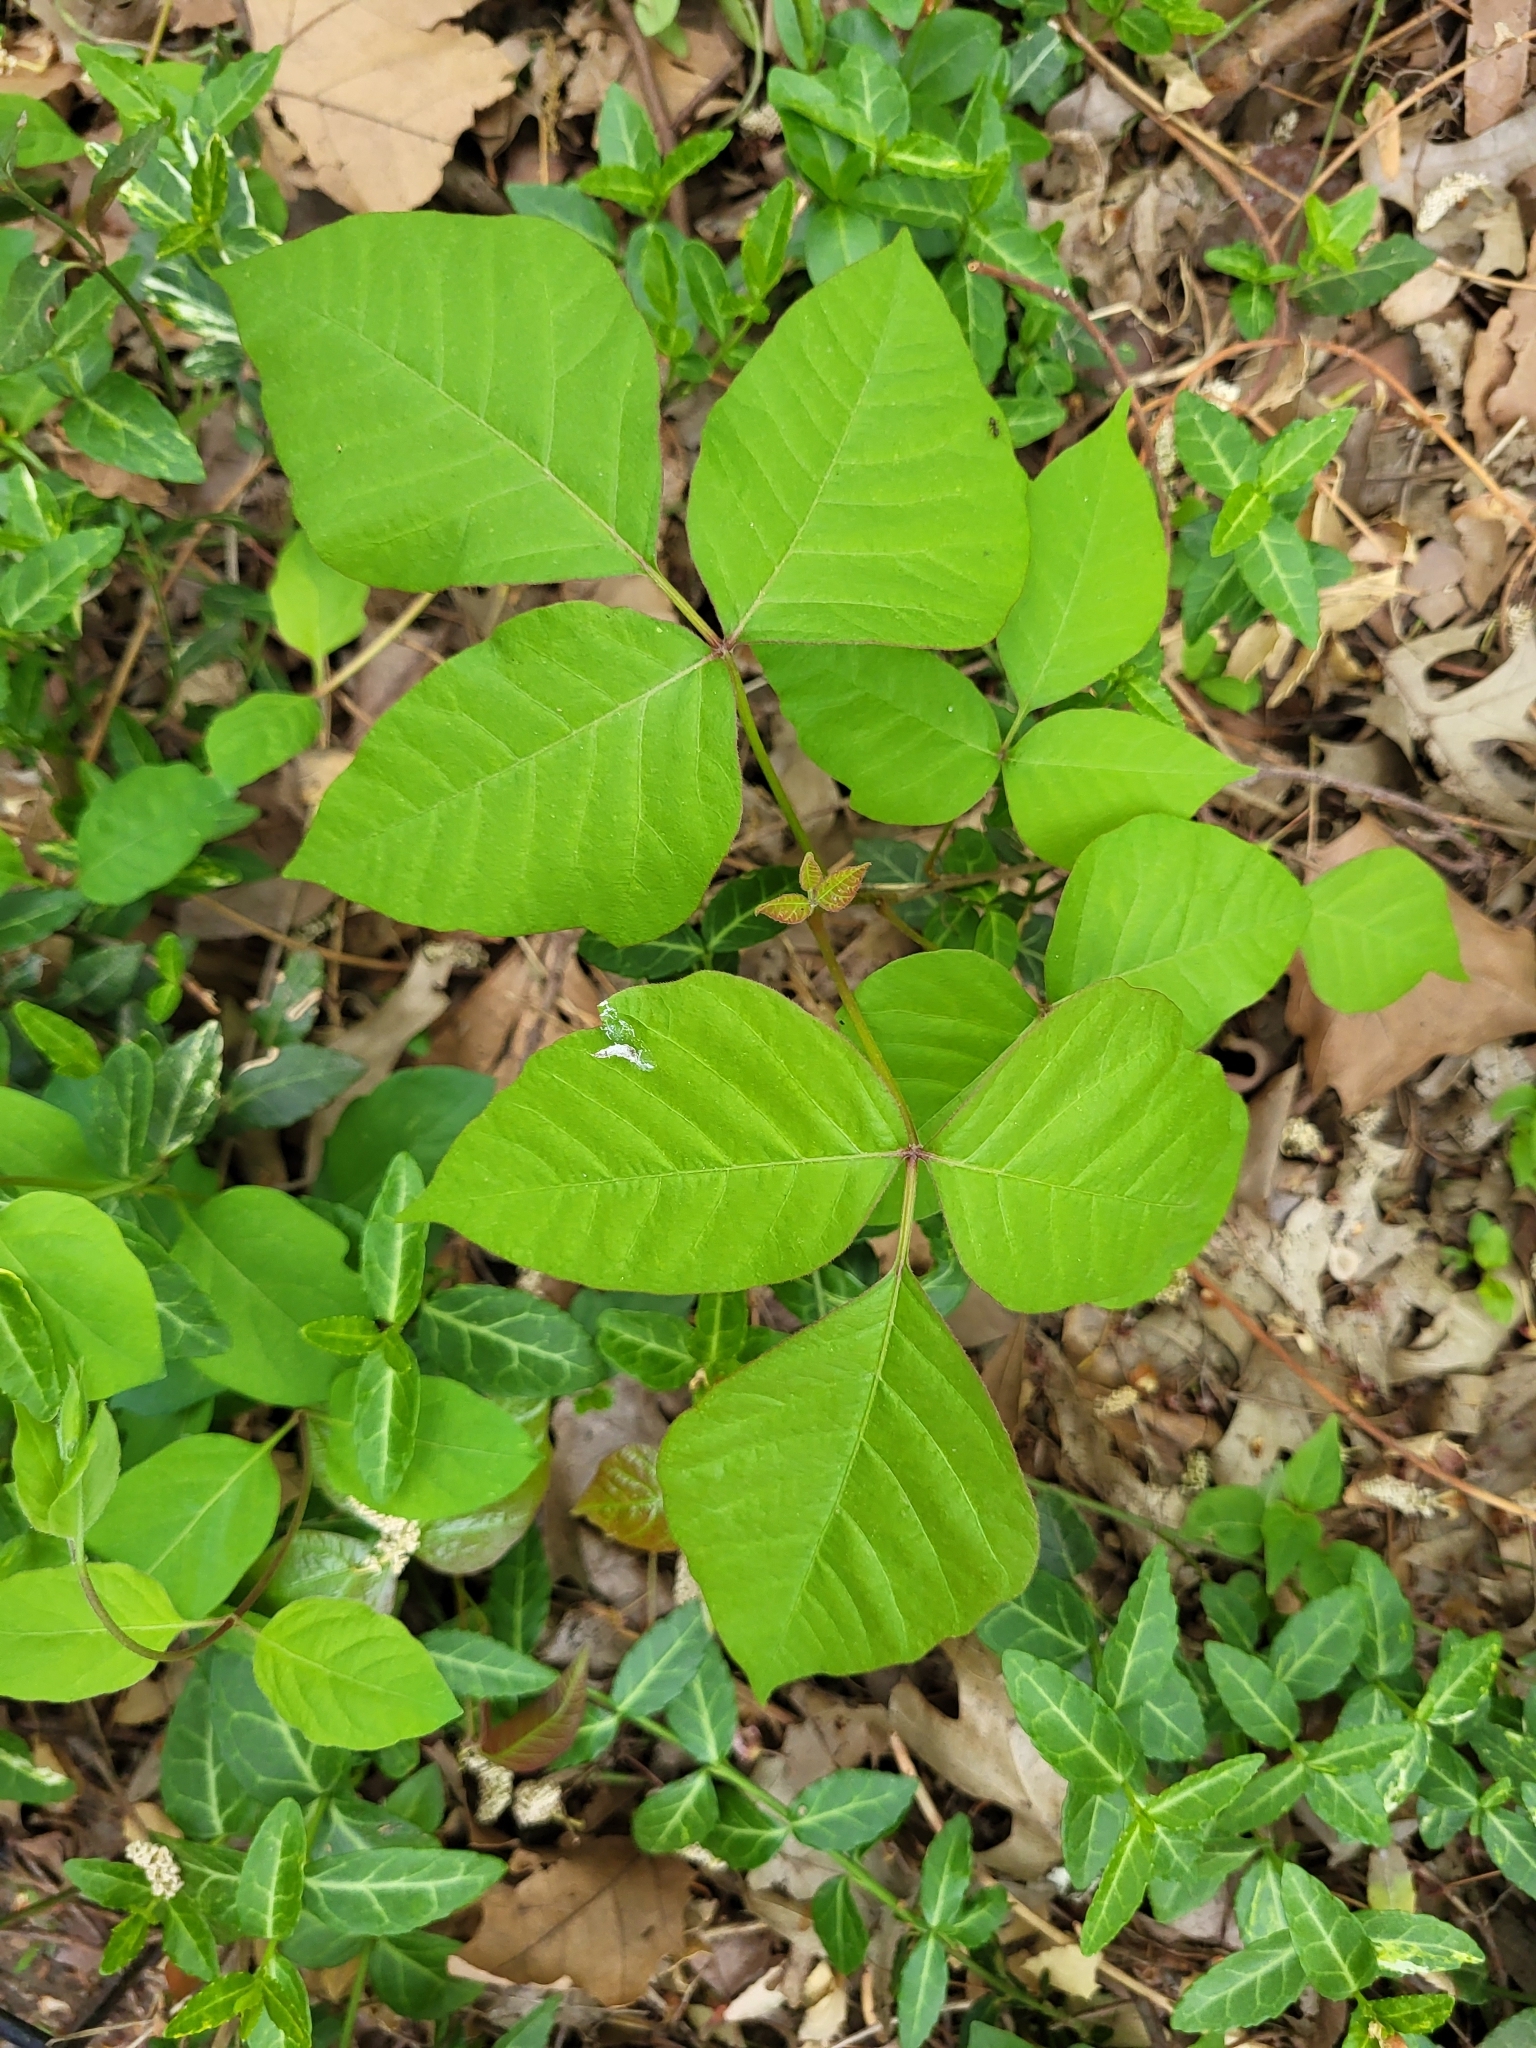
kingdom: Plantae
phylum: Tracheophyta
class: Magnoliopsida
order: Sapindales
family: Anacardiaceae
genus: Toxicodendron
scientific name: Toxicodendron radicans
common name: Poison ivy
